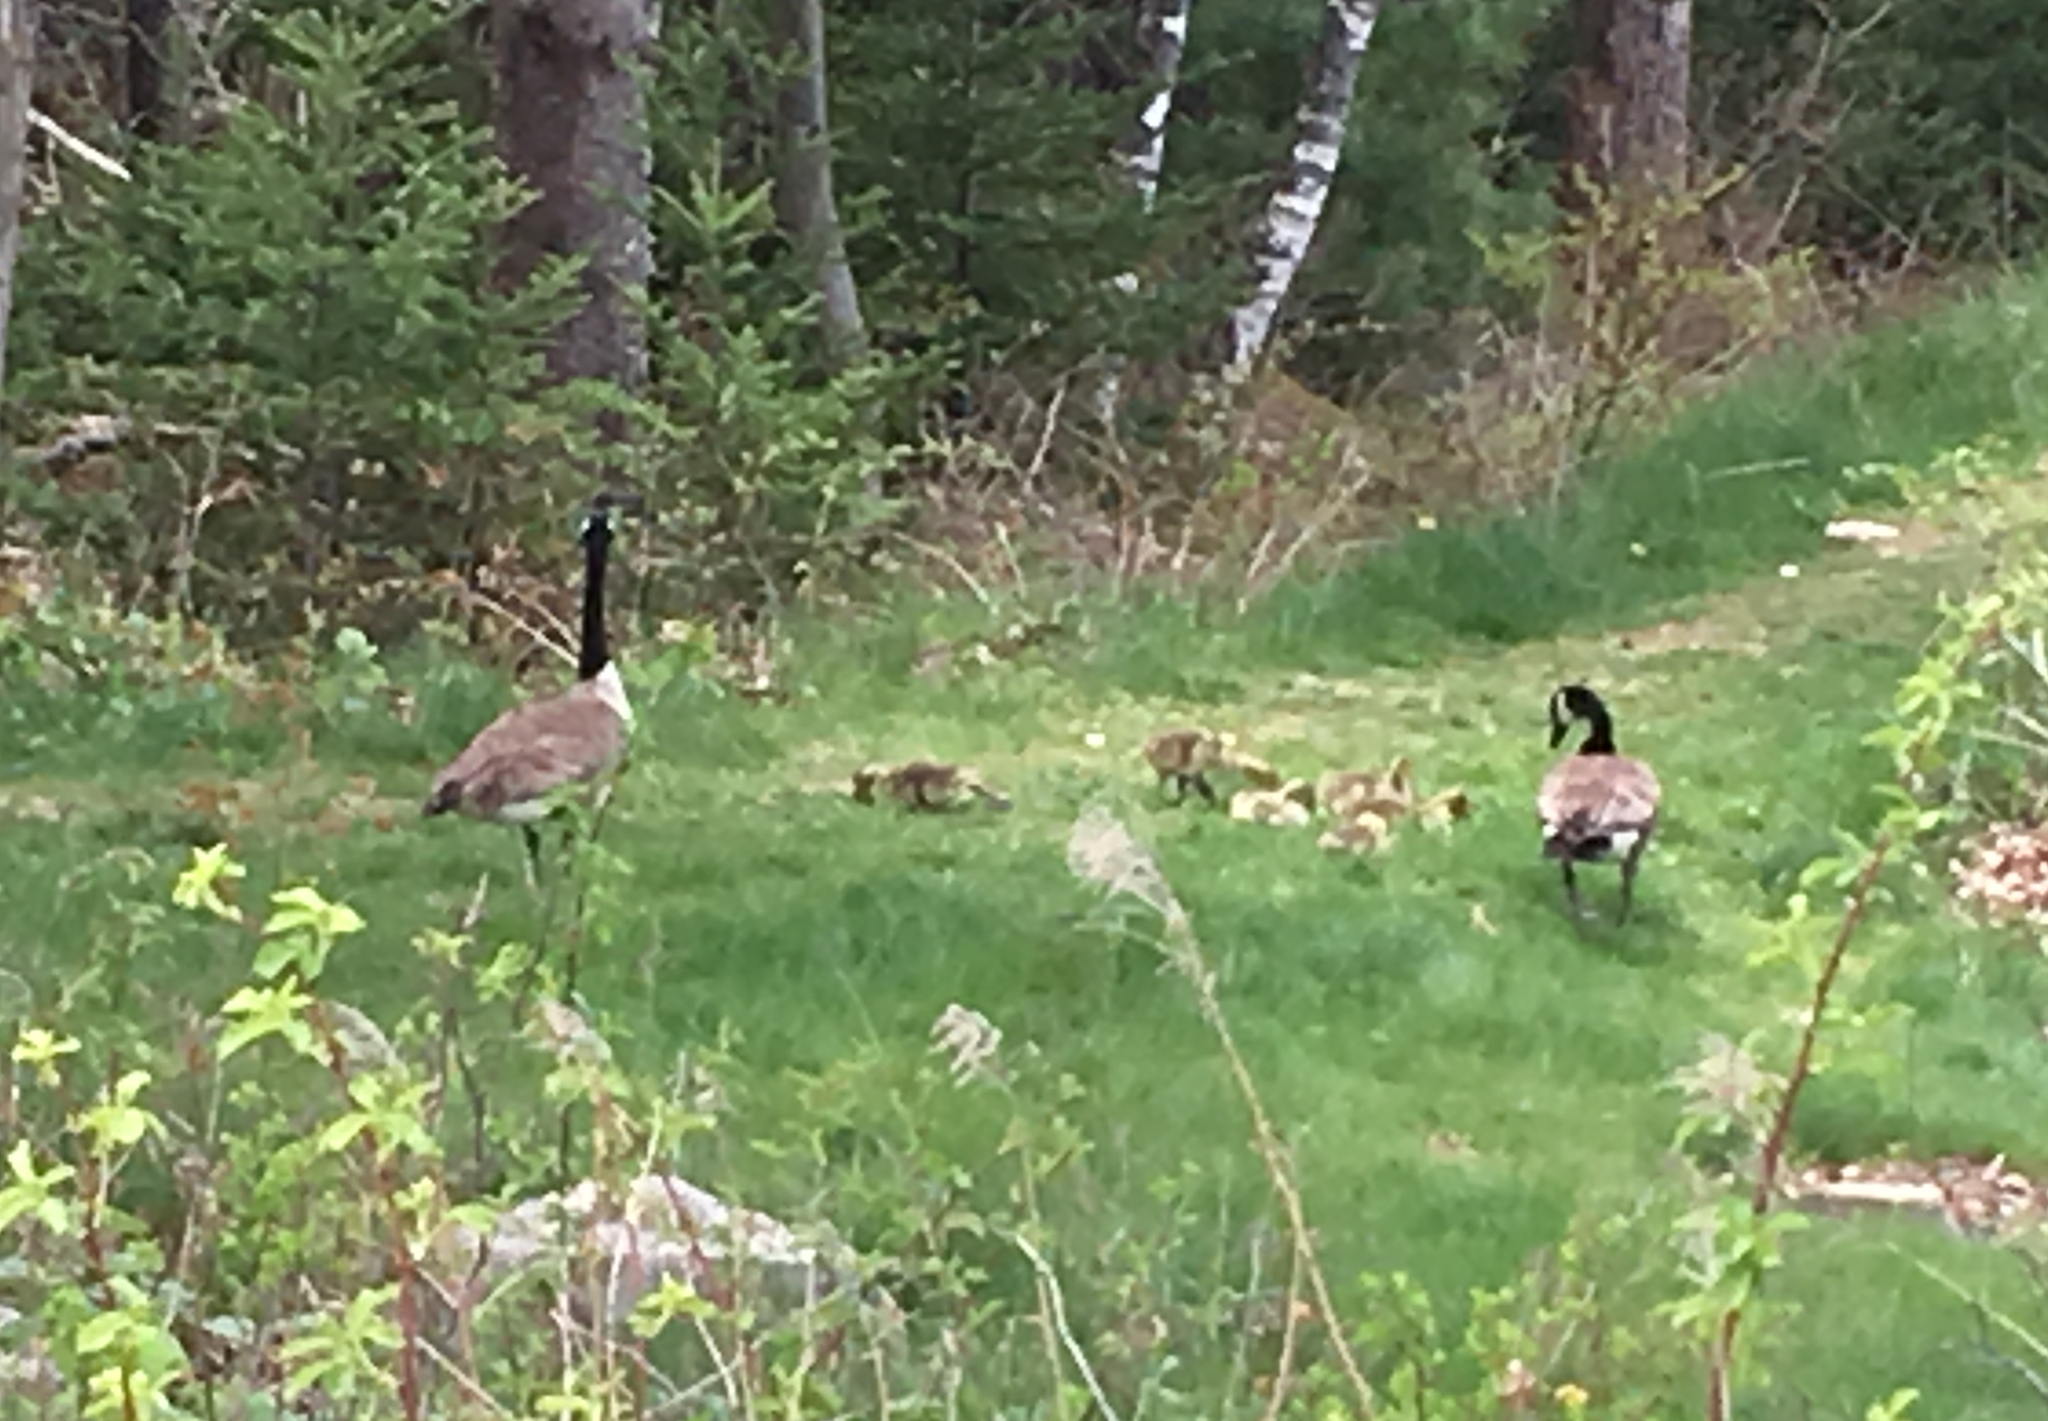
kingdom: Animalia
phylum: Chordata
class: Aves
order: Anseriformes
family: Anatidae
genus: Branta
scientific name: Branta canadensis
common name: Canada goose
